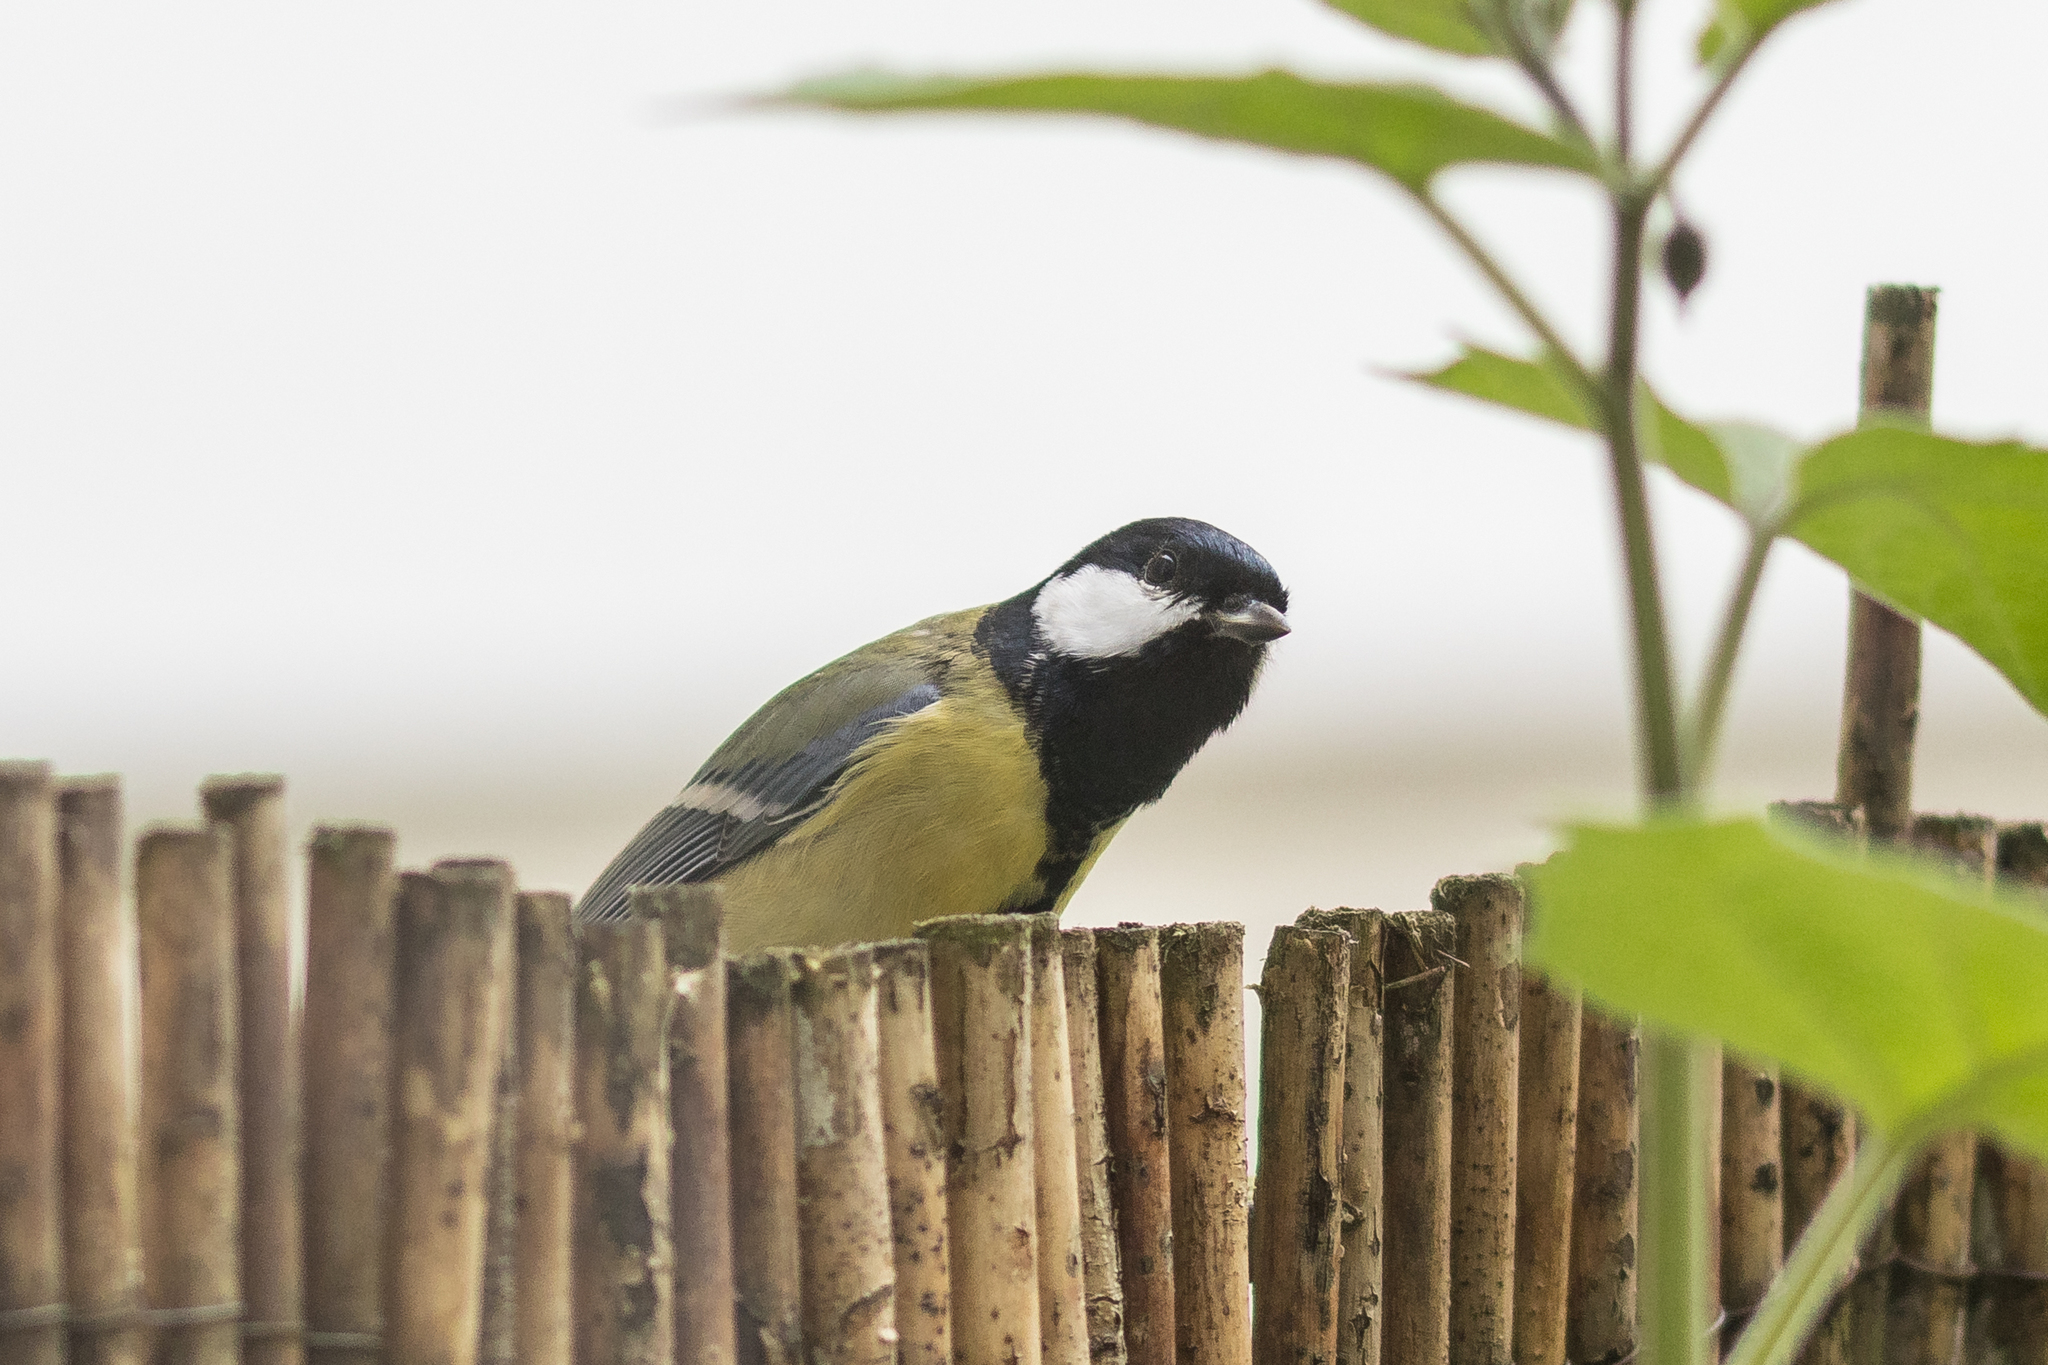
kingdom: Animalia
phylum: Chordata
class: Aves
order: Passeriformes
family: Paridae
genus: Parus
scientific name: Parus major
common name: Great tit
